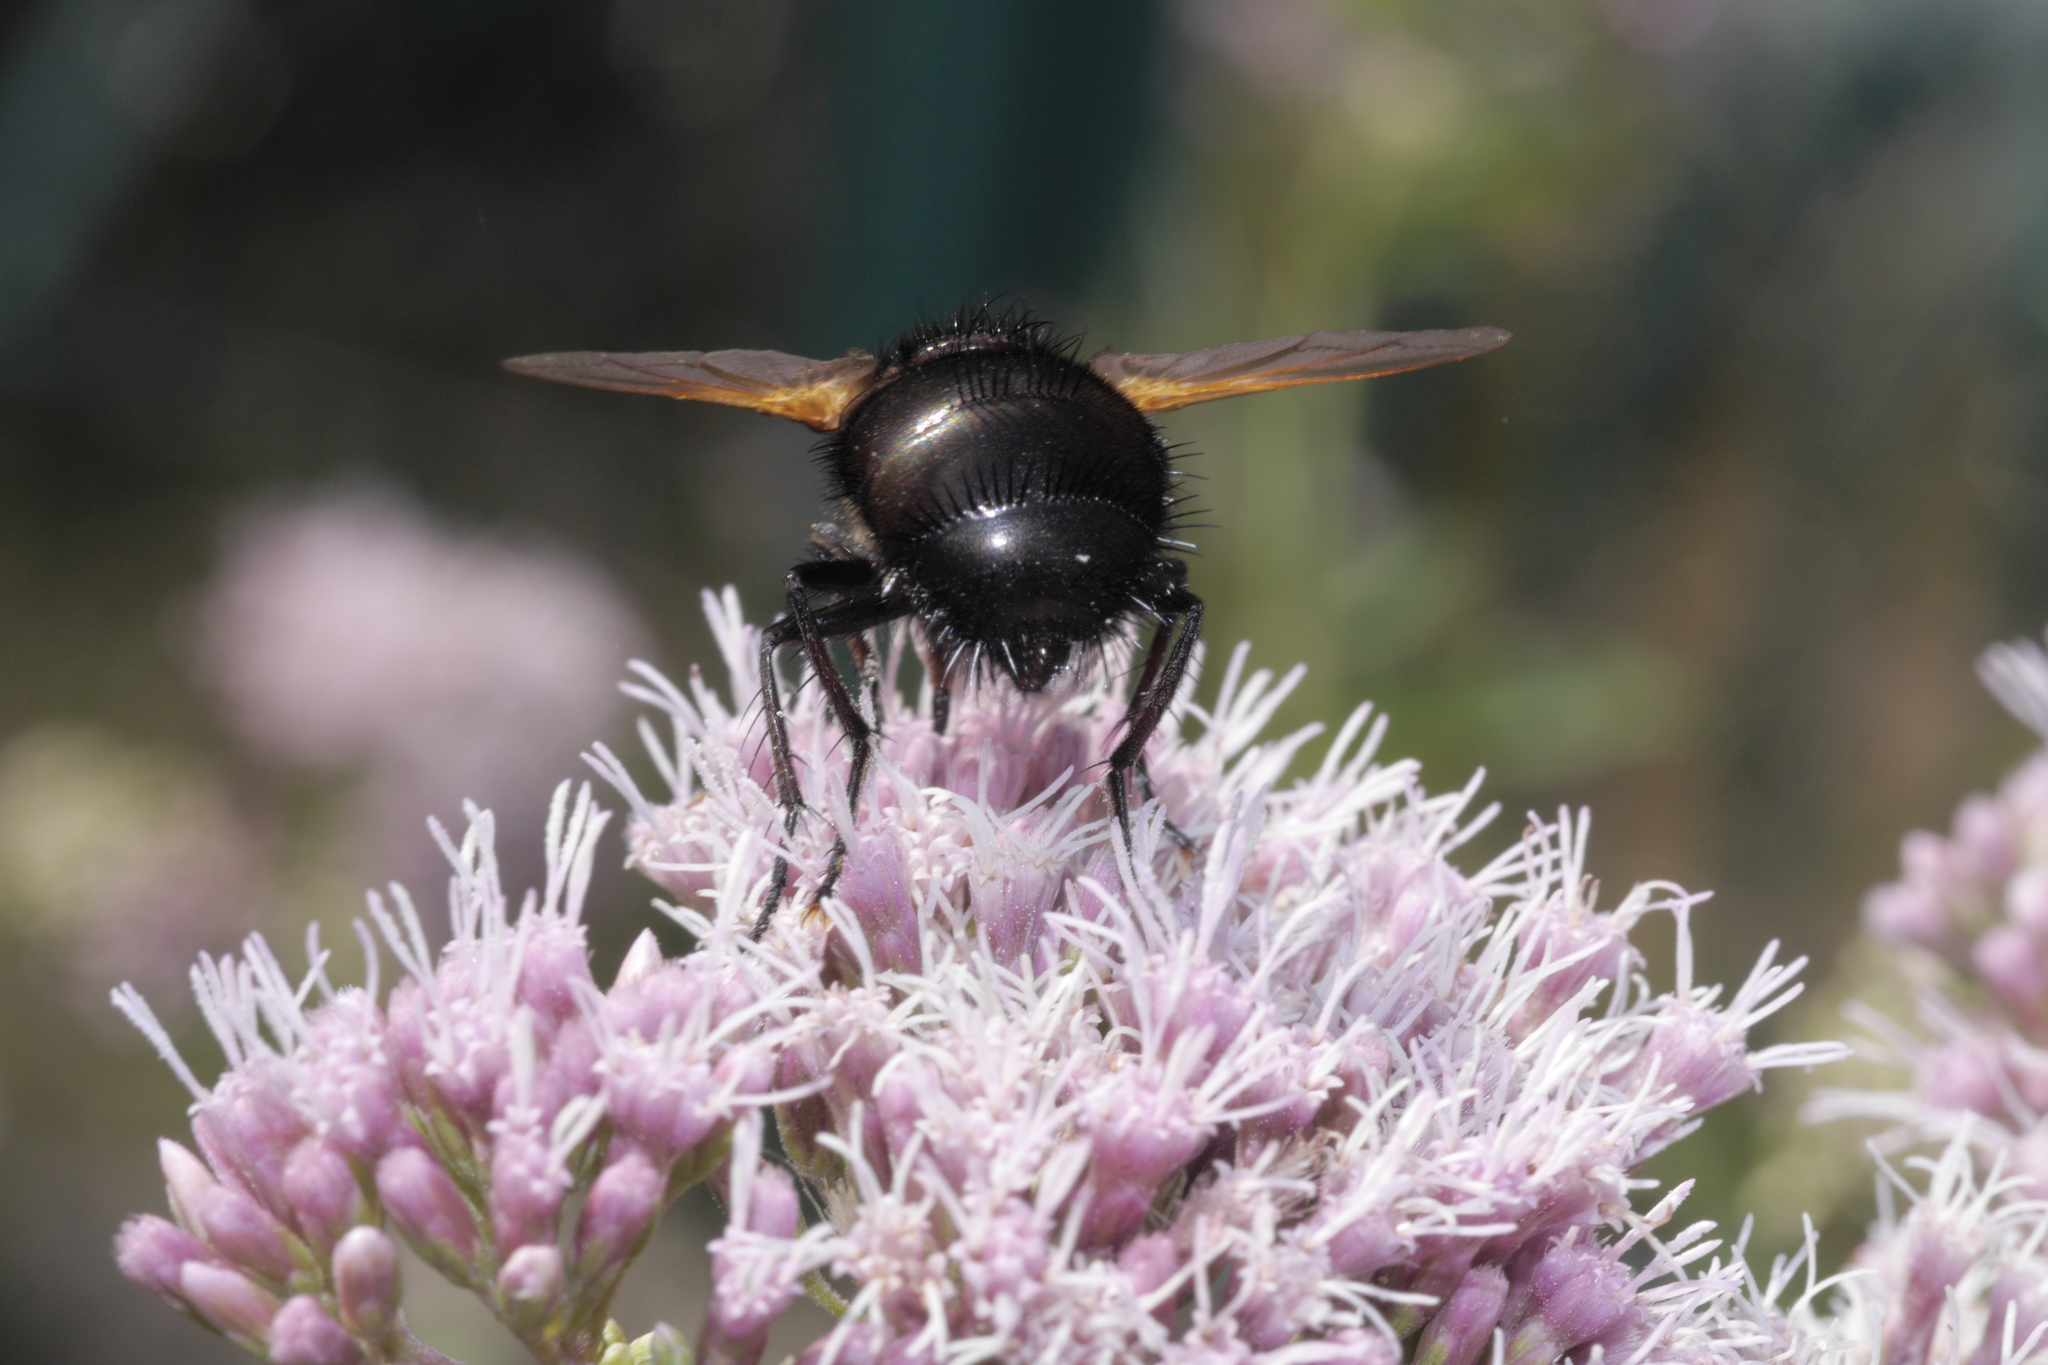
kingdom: Animalia
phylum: Arthropoda
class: Insecta
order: Diptera
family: Tachinidae
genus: Tachina
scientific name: Tachina grossa
